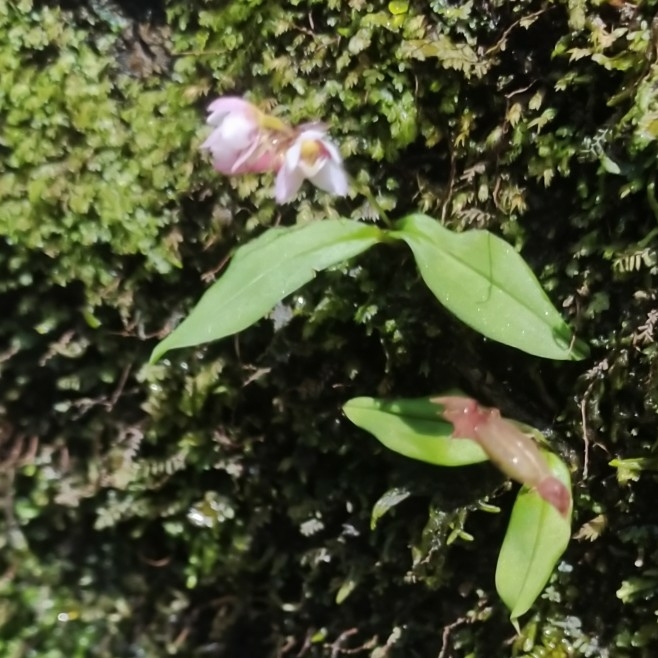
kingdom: Plantae
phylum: Tracheophyta
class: Liliopsida
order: Asparagales
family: Orchidaceae
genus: Cheiradenia
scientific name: Cheiradenia cuspidata
